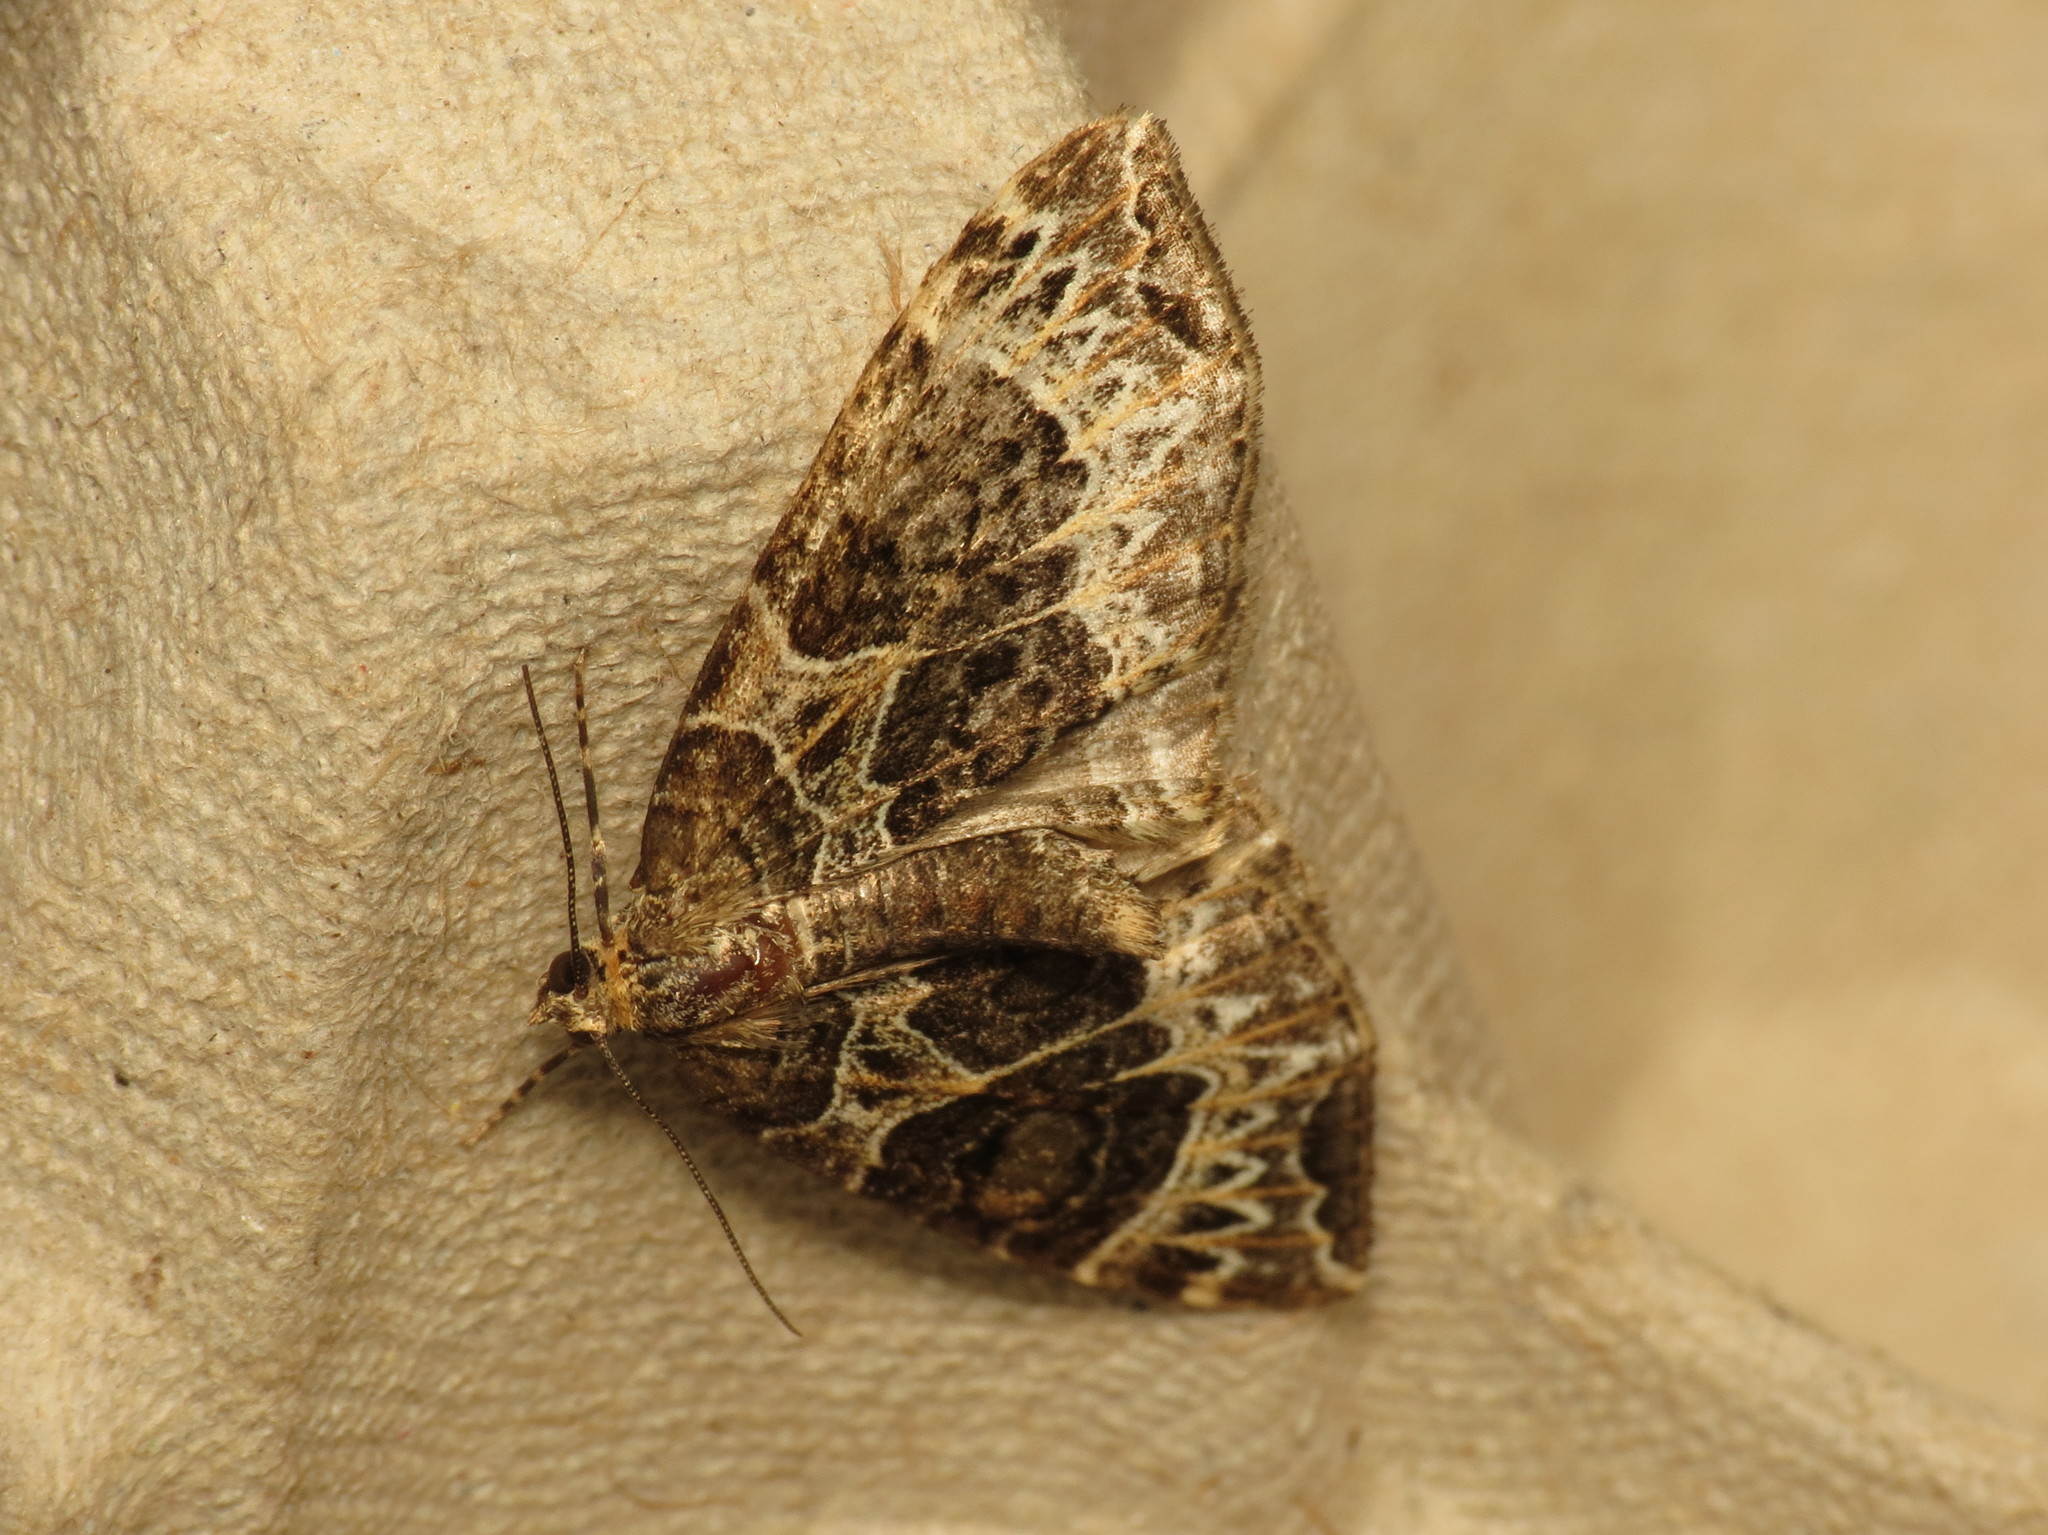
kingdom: Animalia
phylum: Arthropoda
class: Insecta
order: Lepidoptera
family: Geometridae
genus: Ecliptopera
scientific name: Ecliptopera silaceata
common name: Small phoenix
